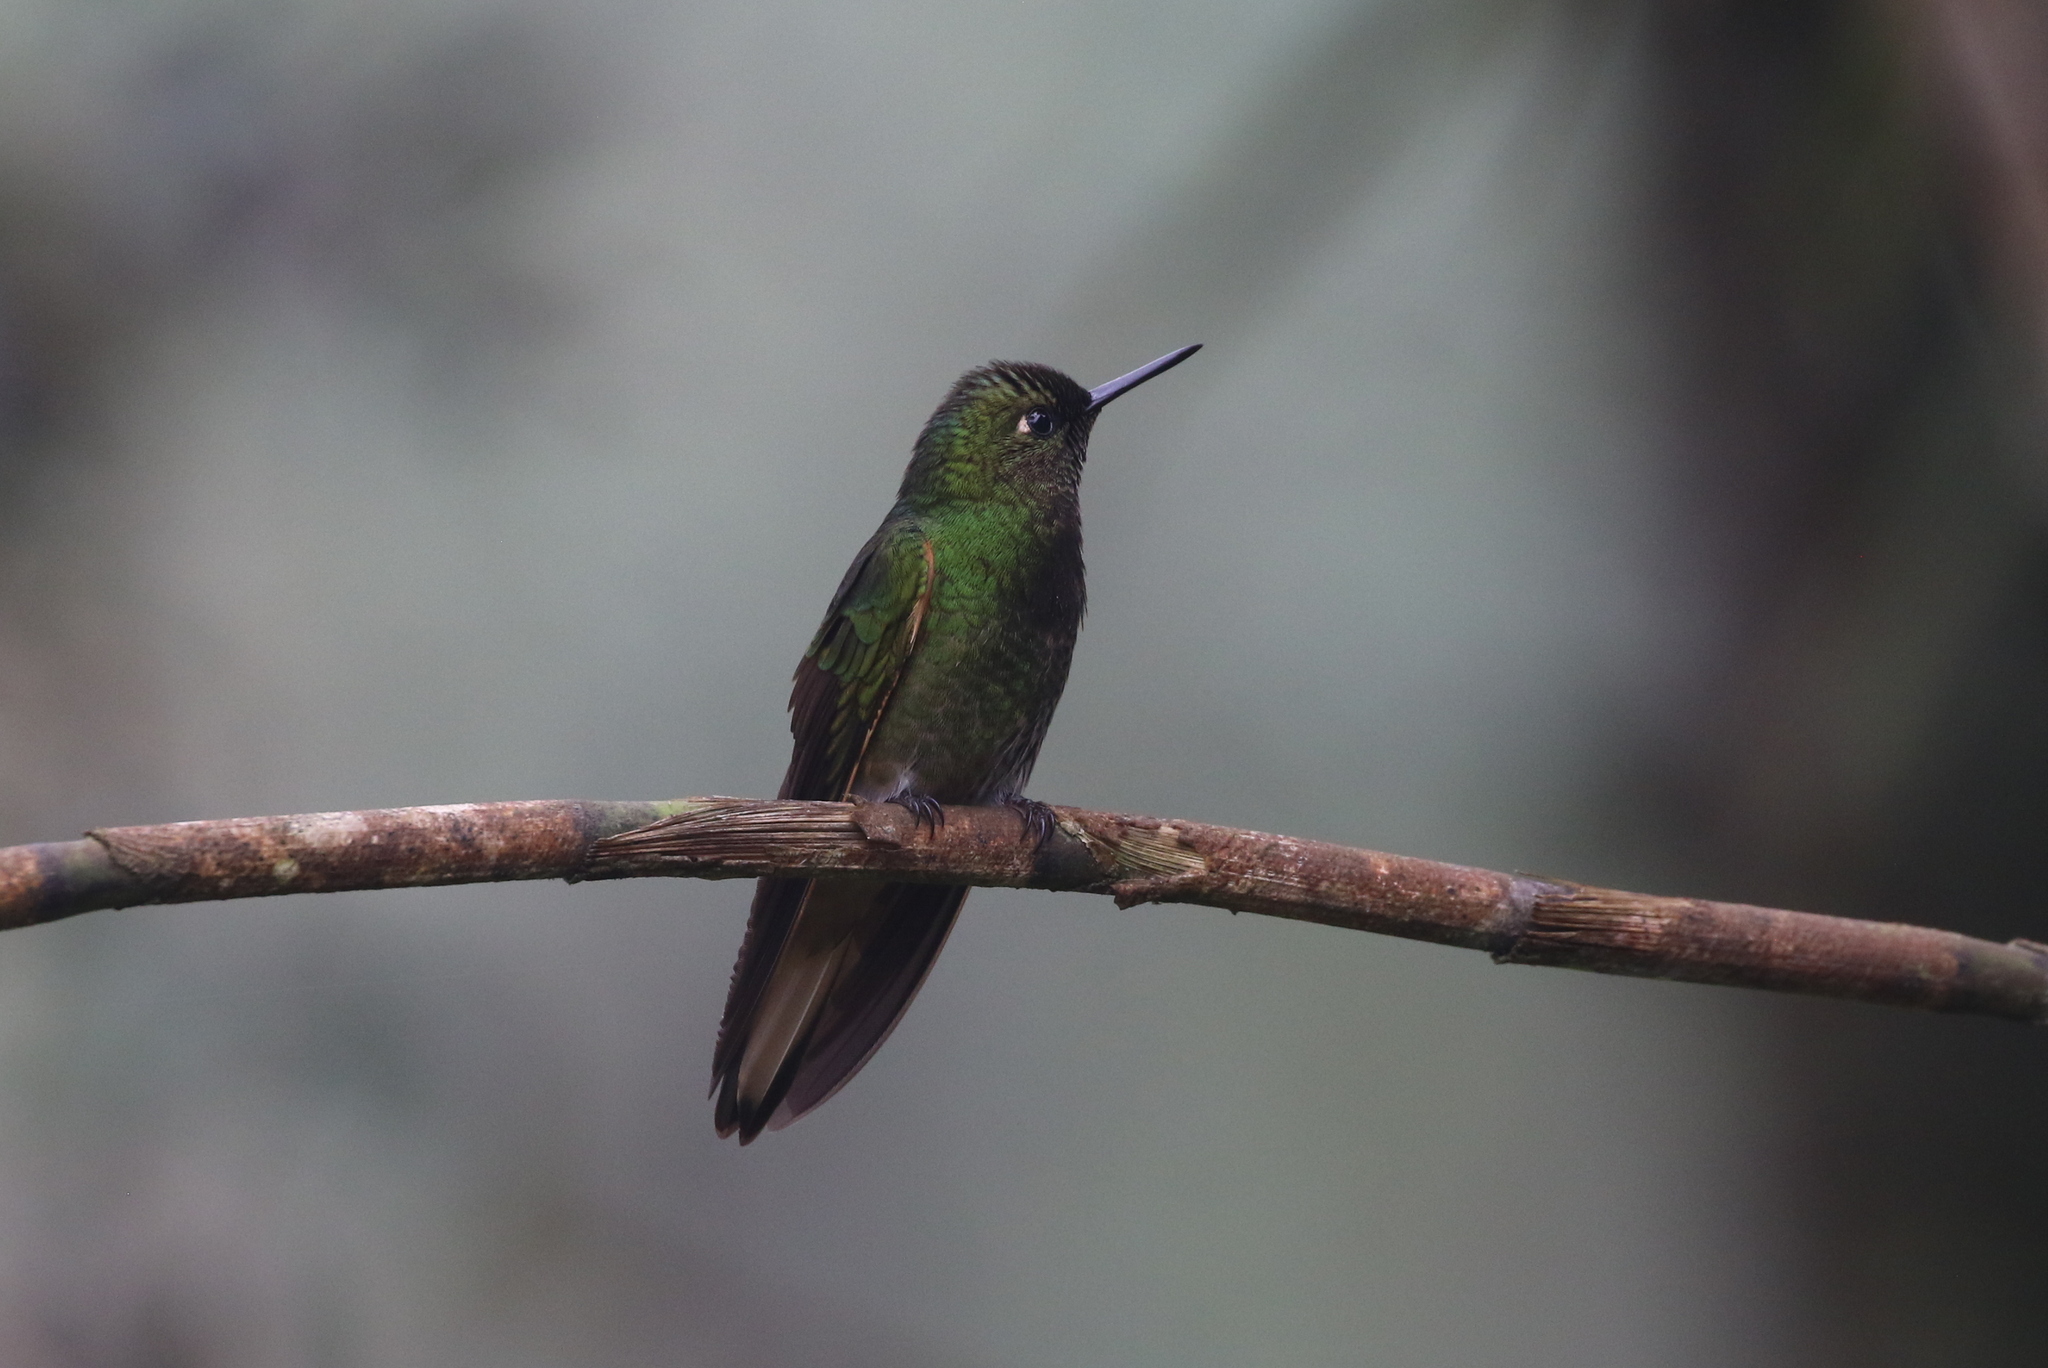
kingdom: Animalia
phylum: Chordata
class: Aves
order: Apodiformes
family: Trochilidae
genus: Boissonneaua
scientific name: Boissonneaua flavescens
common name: Buff-tailed coronet
